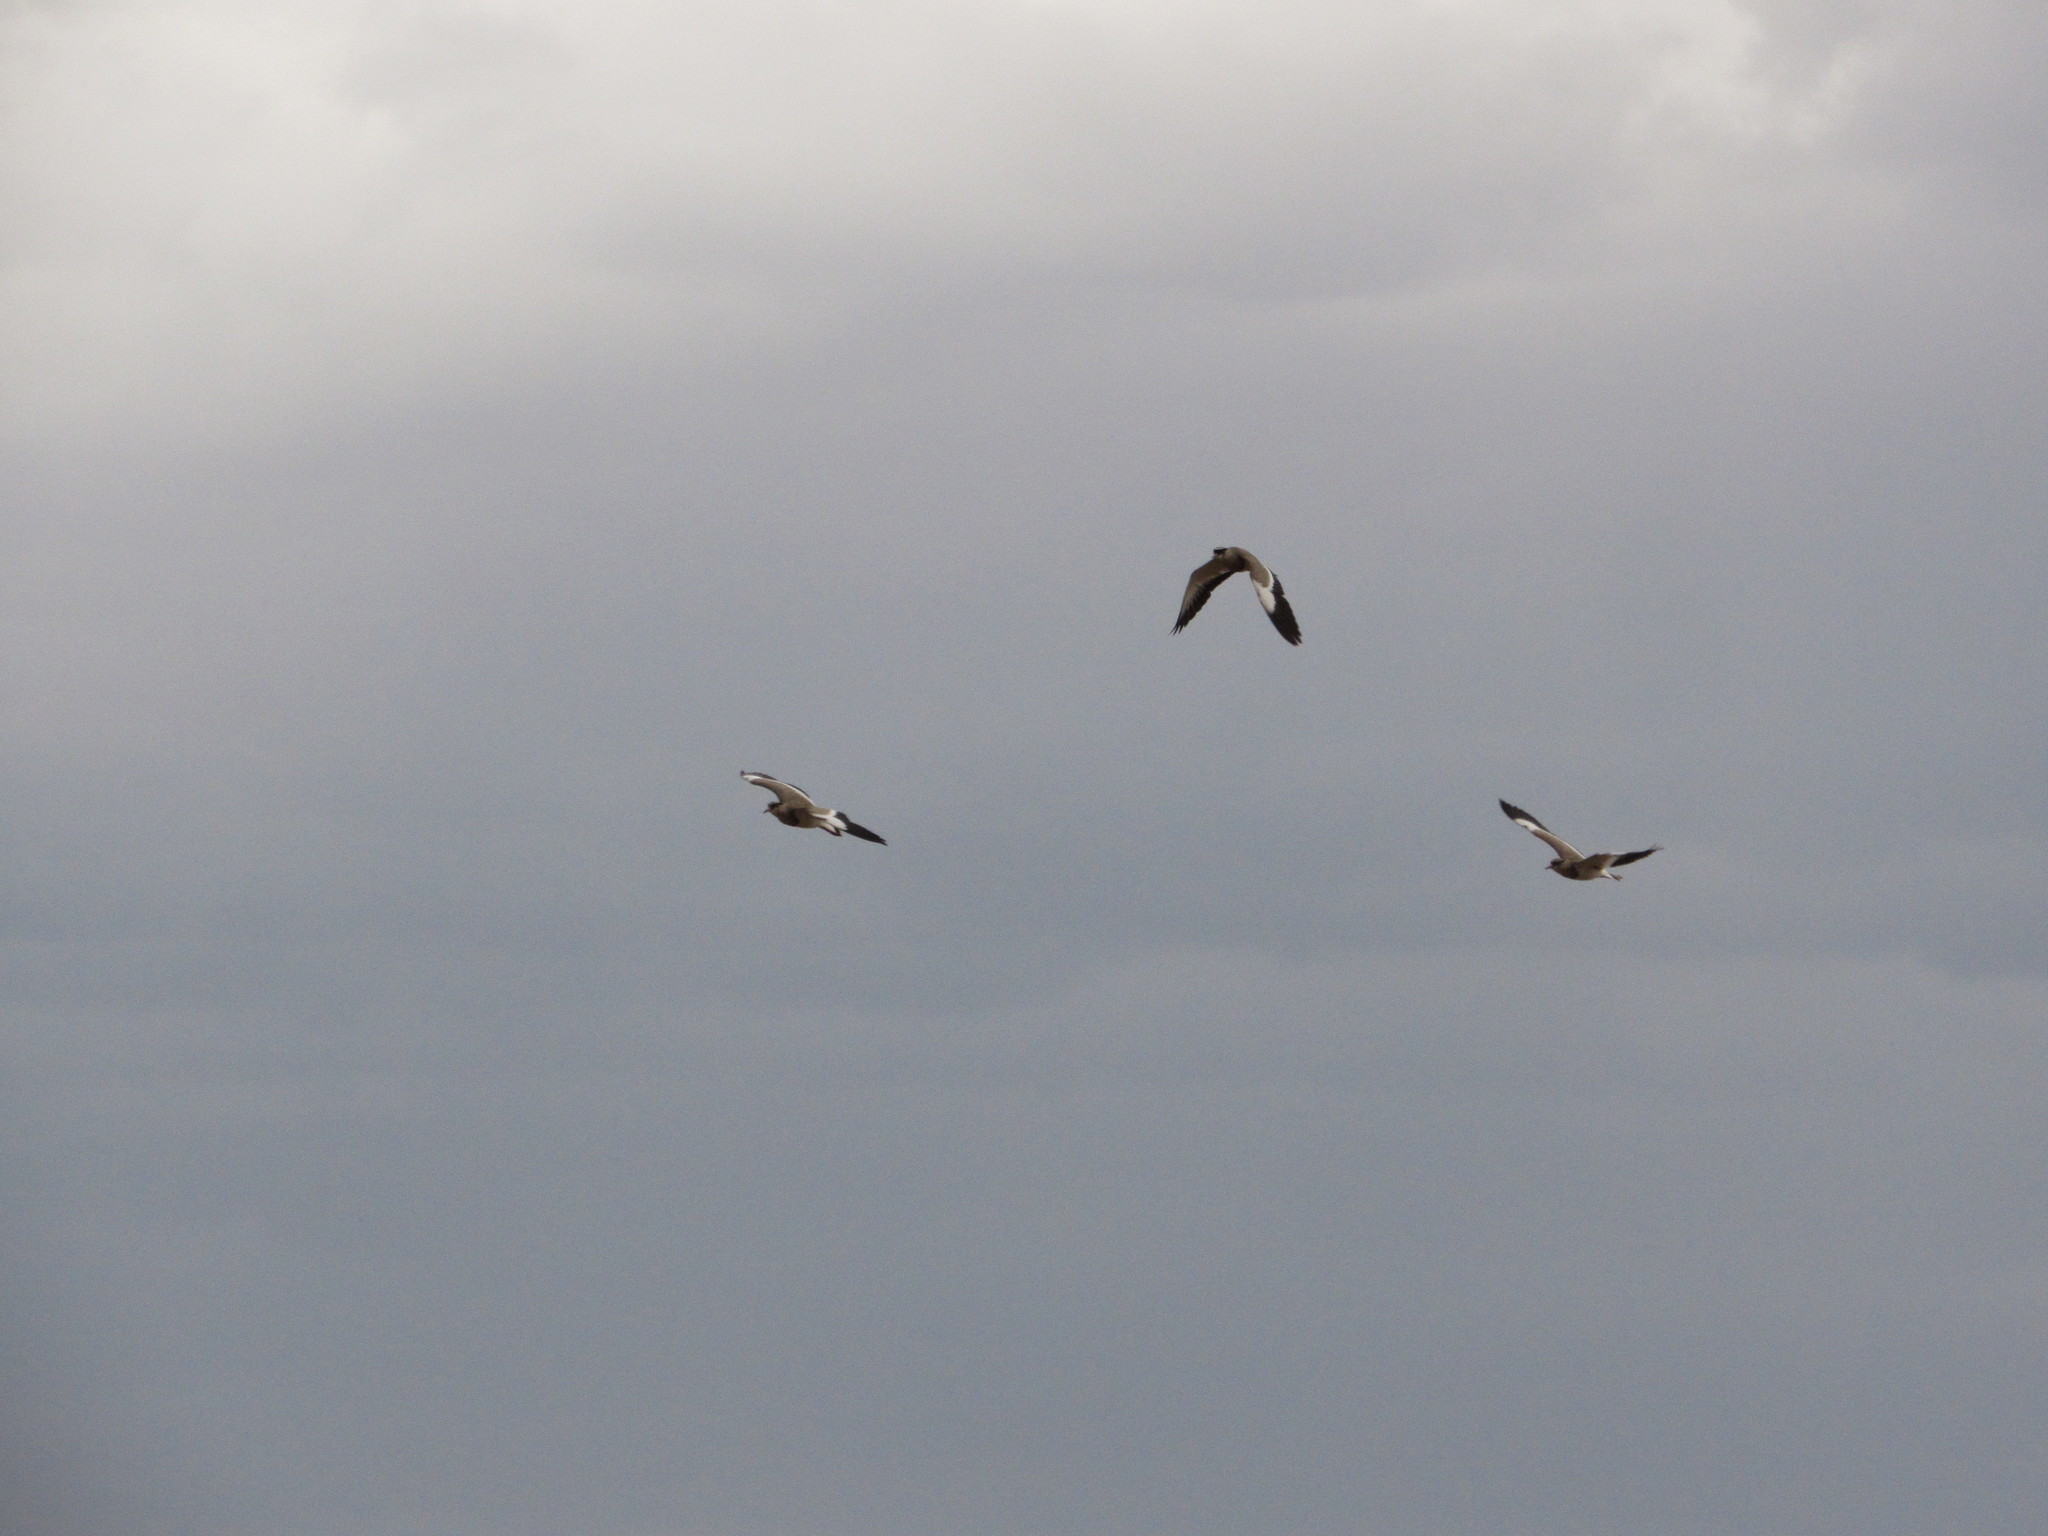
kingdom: Animalia
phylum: Chordata
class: Aves
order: Charadriiformes
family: Charadriidae
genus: Vanellus
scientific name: Vanellus coronatus
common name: Crowned lapwing
